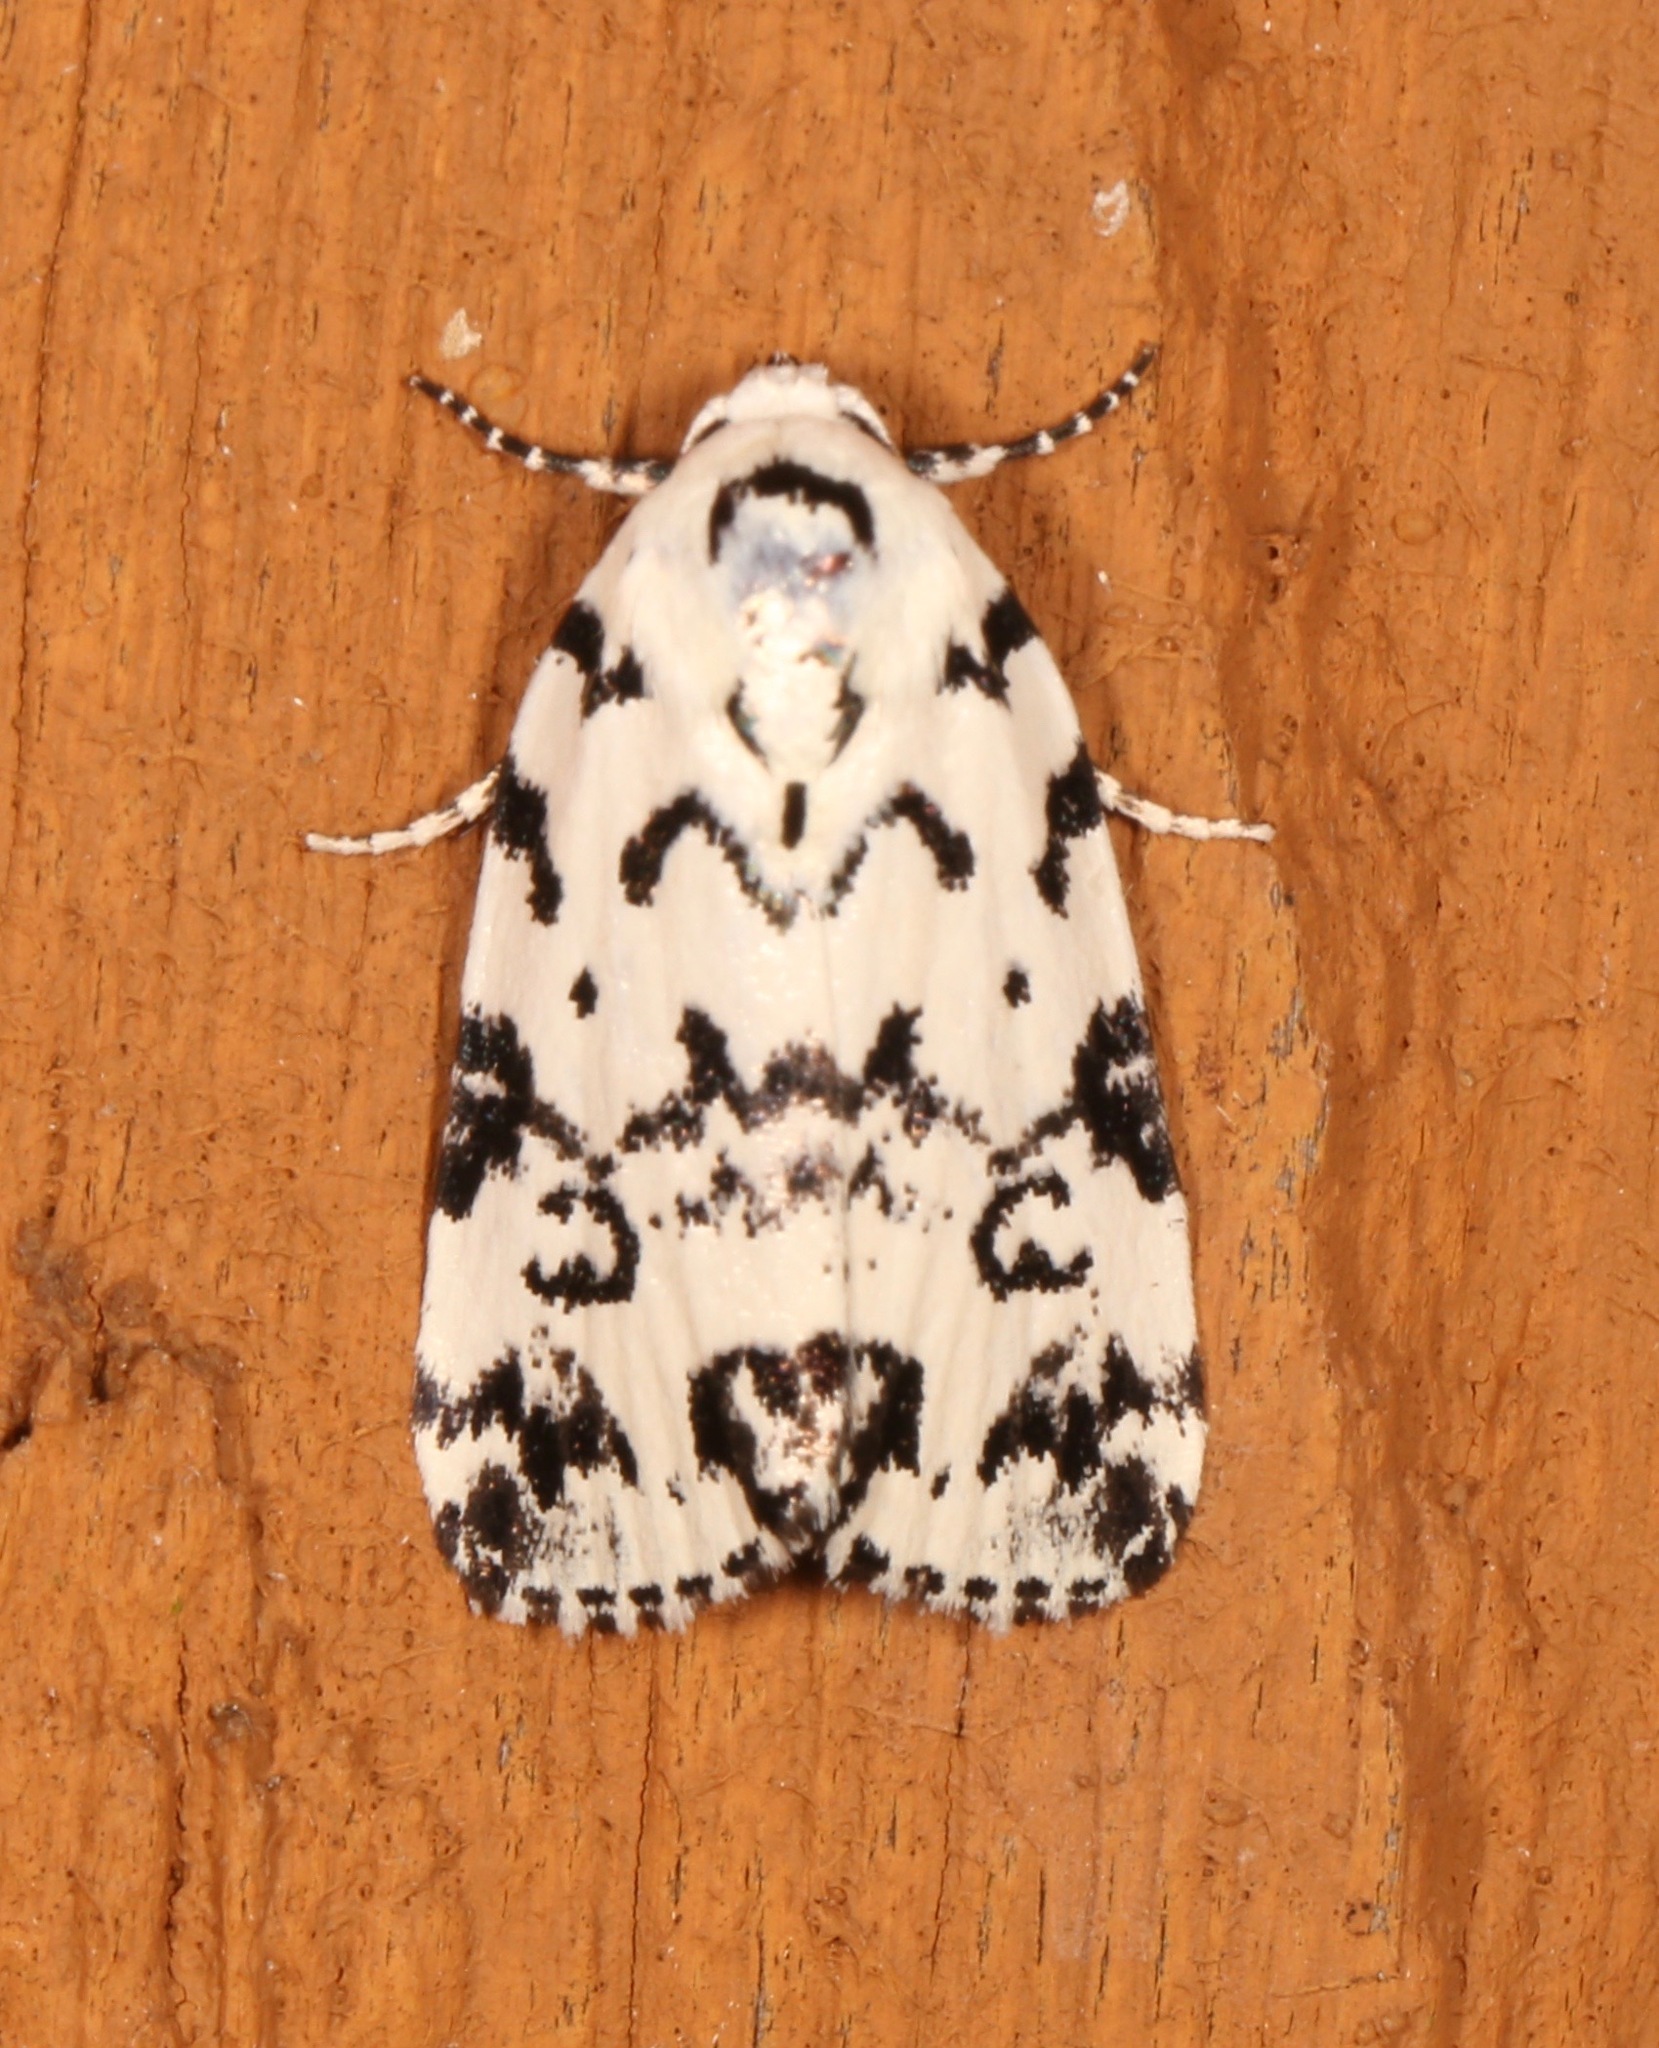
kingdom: Animalia
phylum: Arthropoda
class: Insecta
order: Lepidoptera
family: Noctuidae
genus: Polygrammate
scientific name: Polygrammate hebraeicum
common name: Hebrew moth
